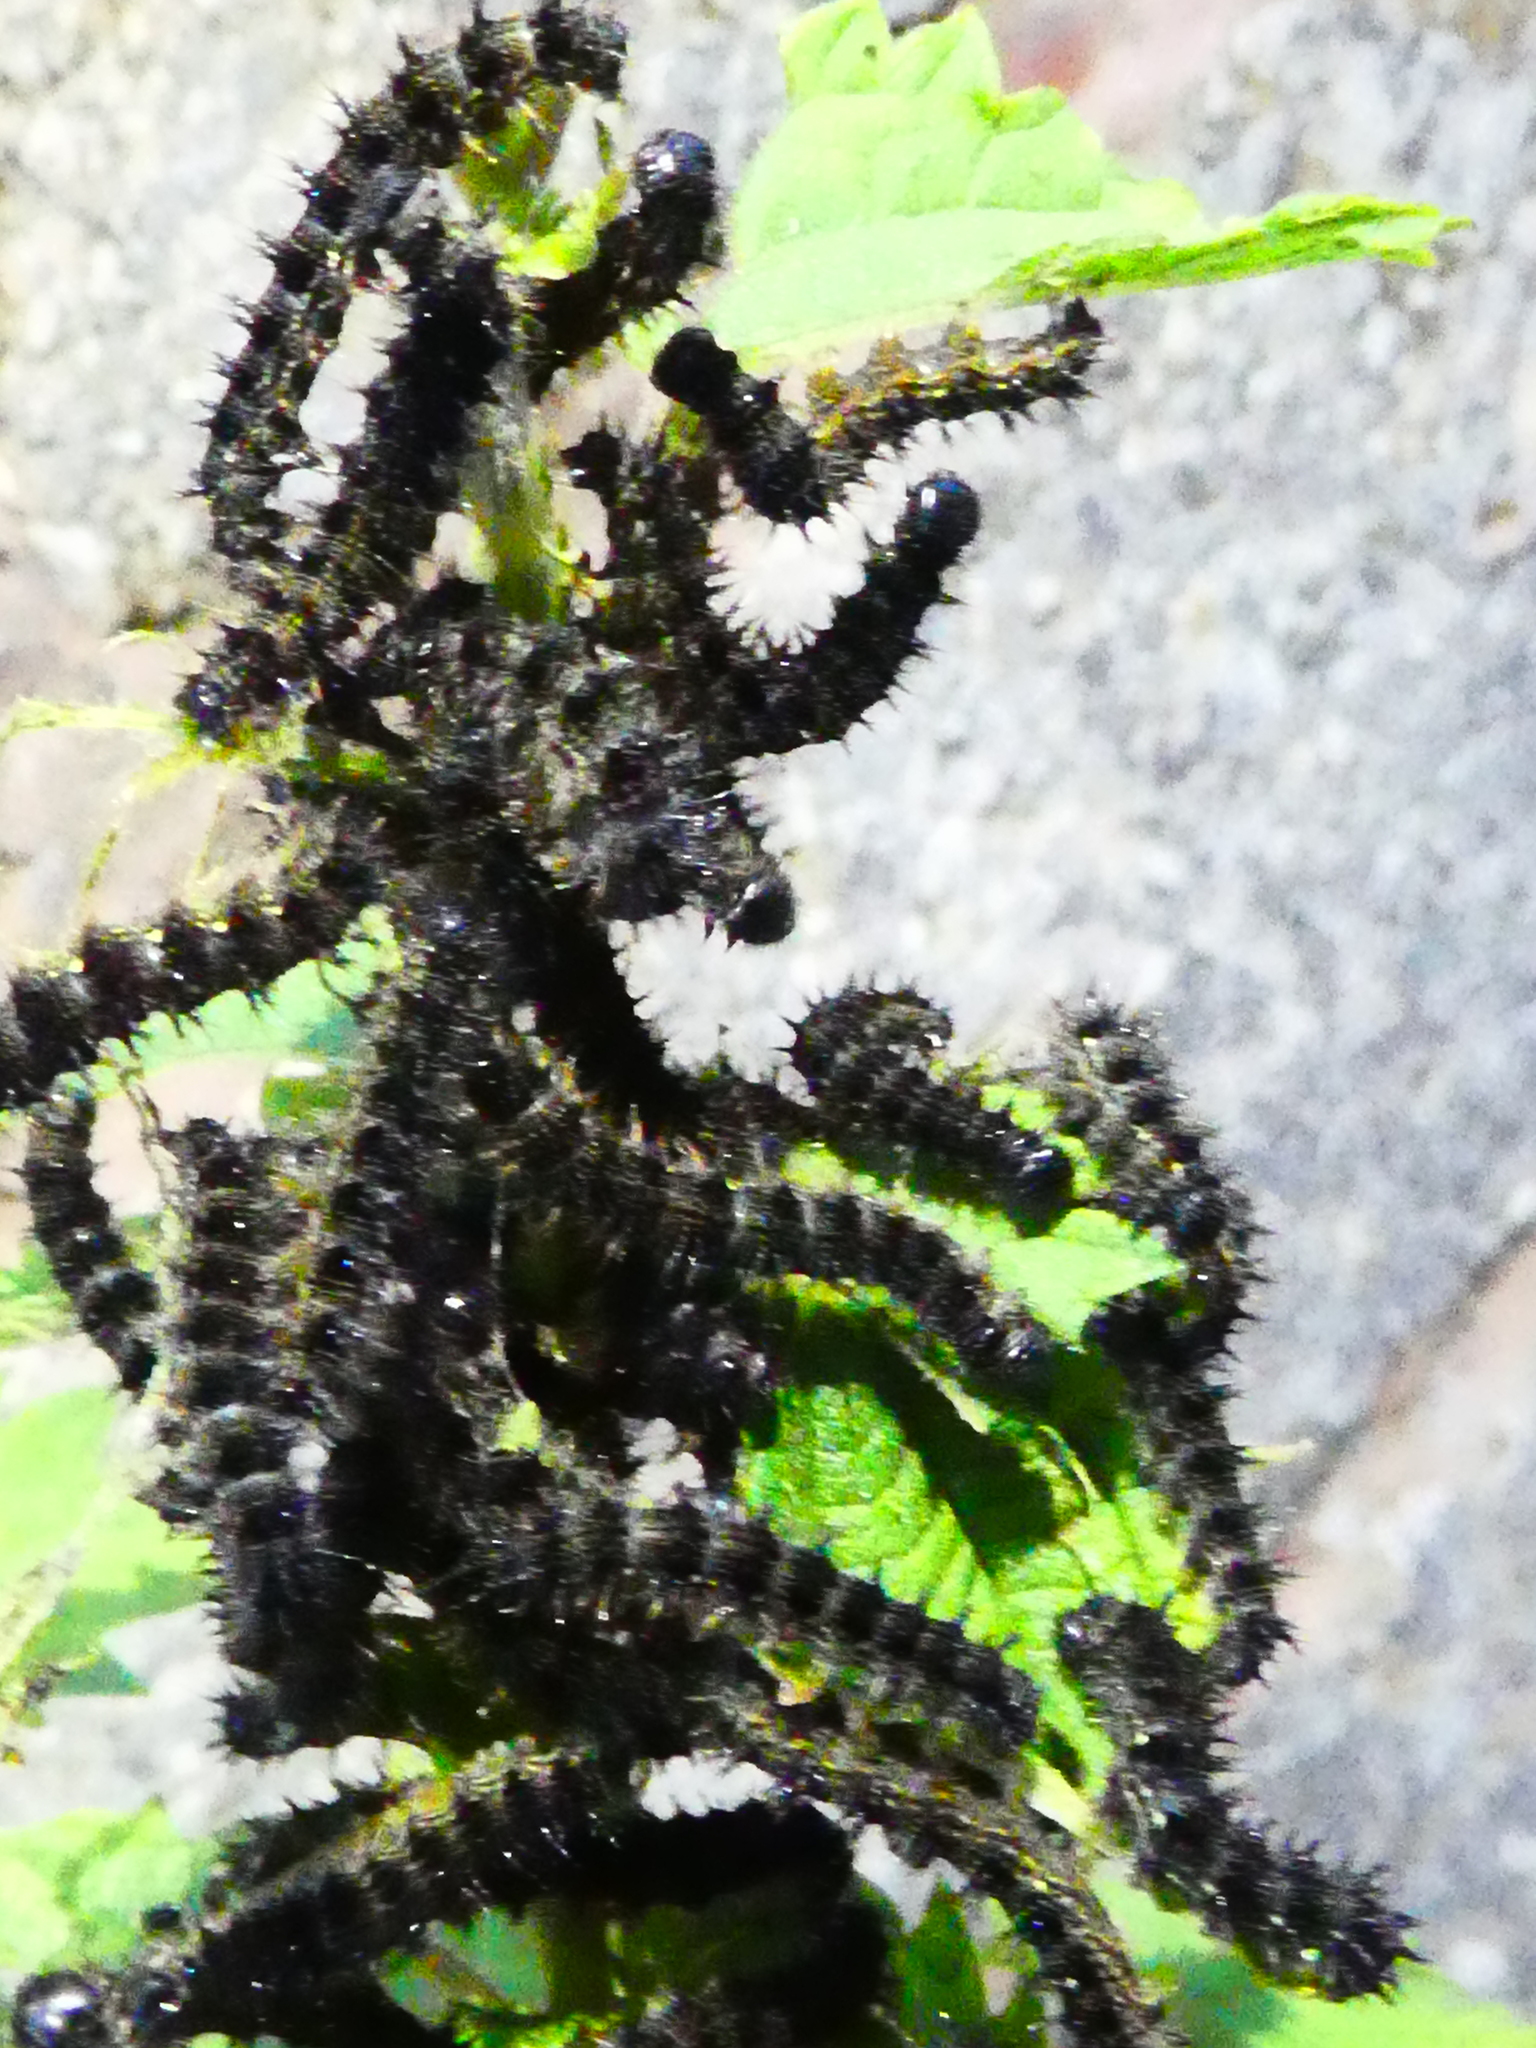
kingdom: Animalia
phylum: Arthropoda
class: Insecta
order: Lepidoptera
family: Nymphalidae
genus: Aglais
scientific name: Aglais urticae
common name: Small tortoiseshell
